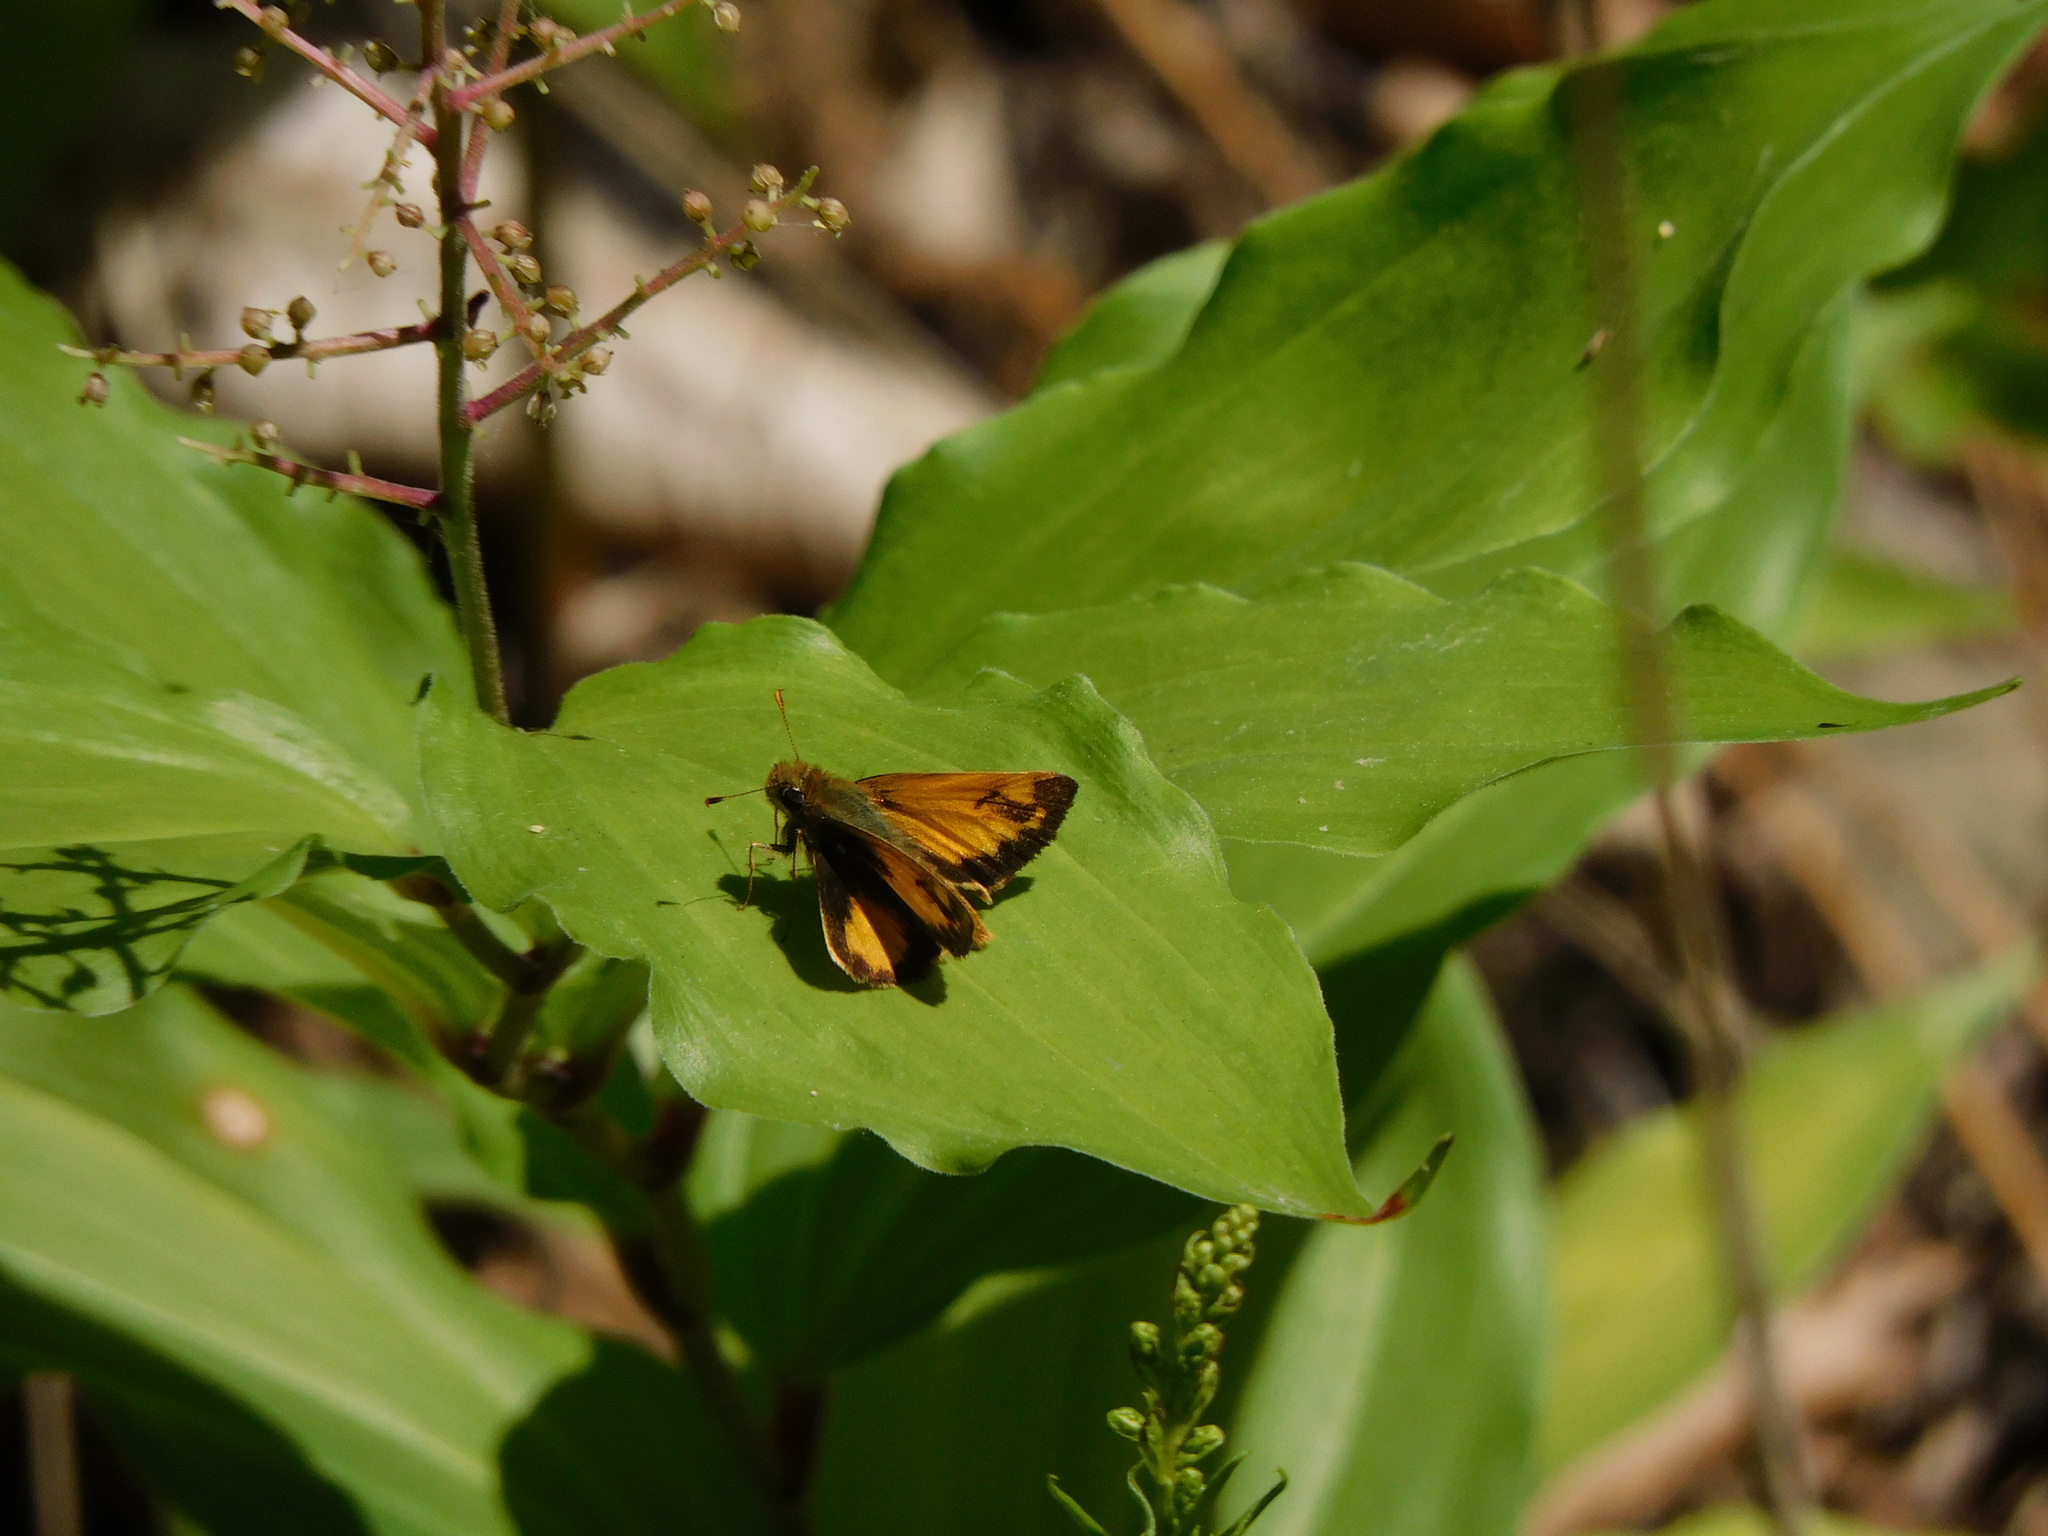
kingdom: Animalia
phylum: Arthropoda
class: Insecta
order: Lepidoptera
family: Hesperiidae
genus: Lon
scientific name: Lon zabulon
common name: Zabulon skipper
